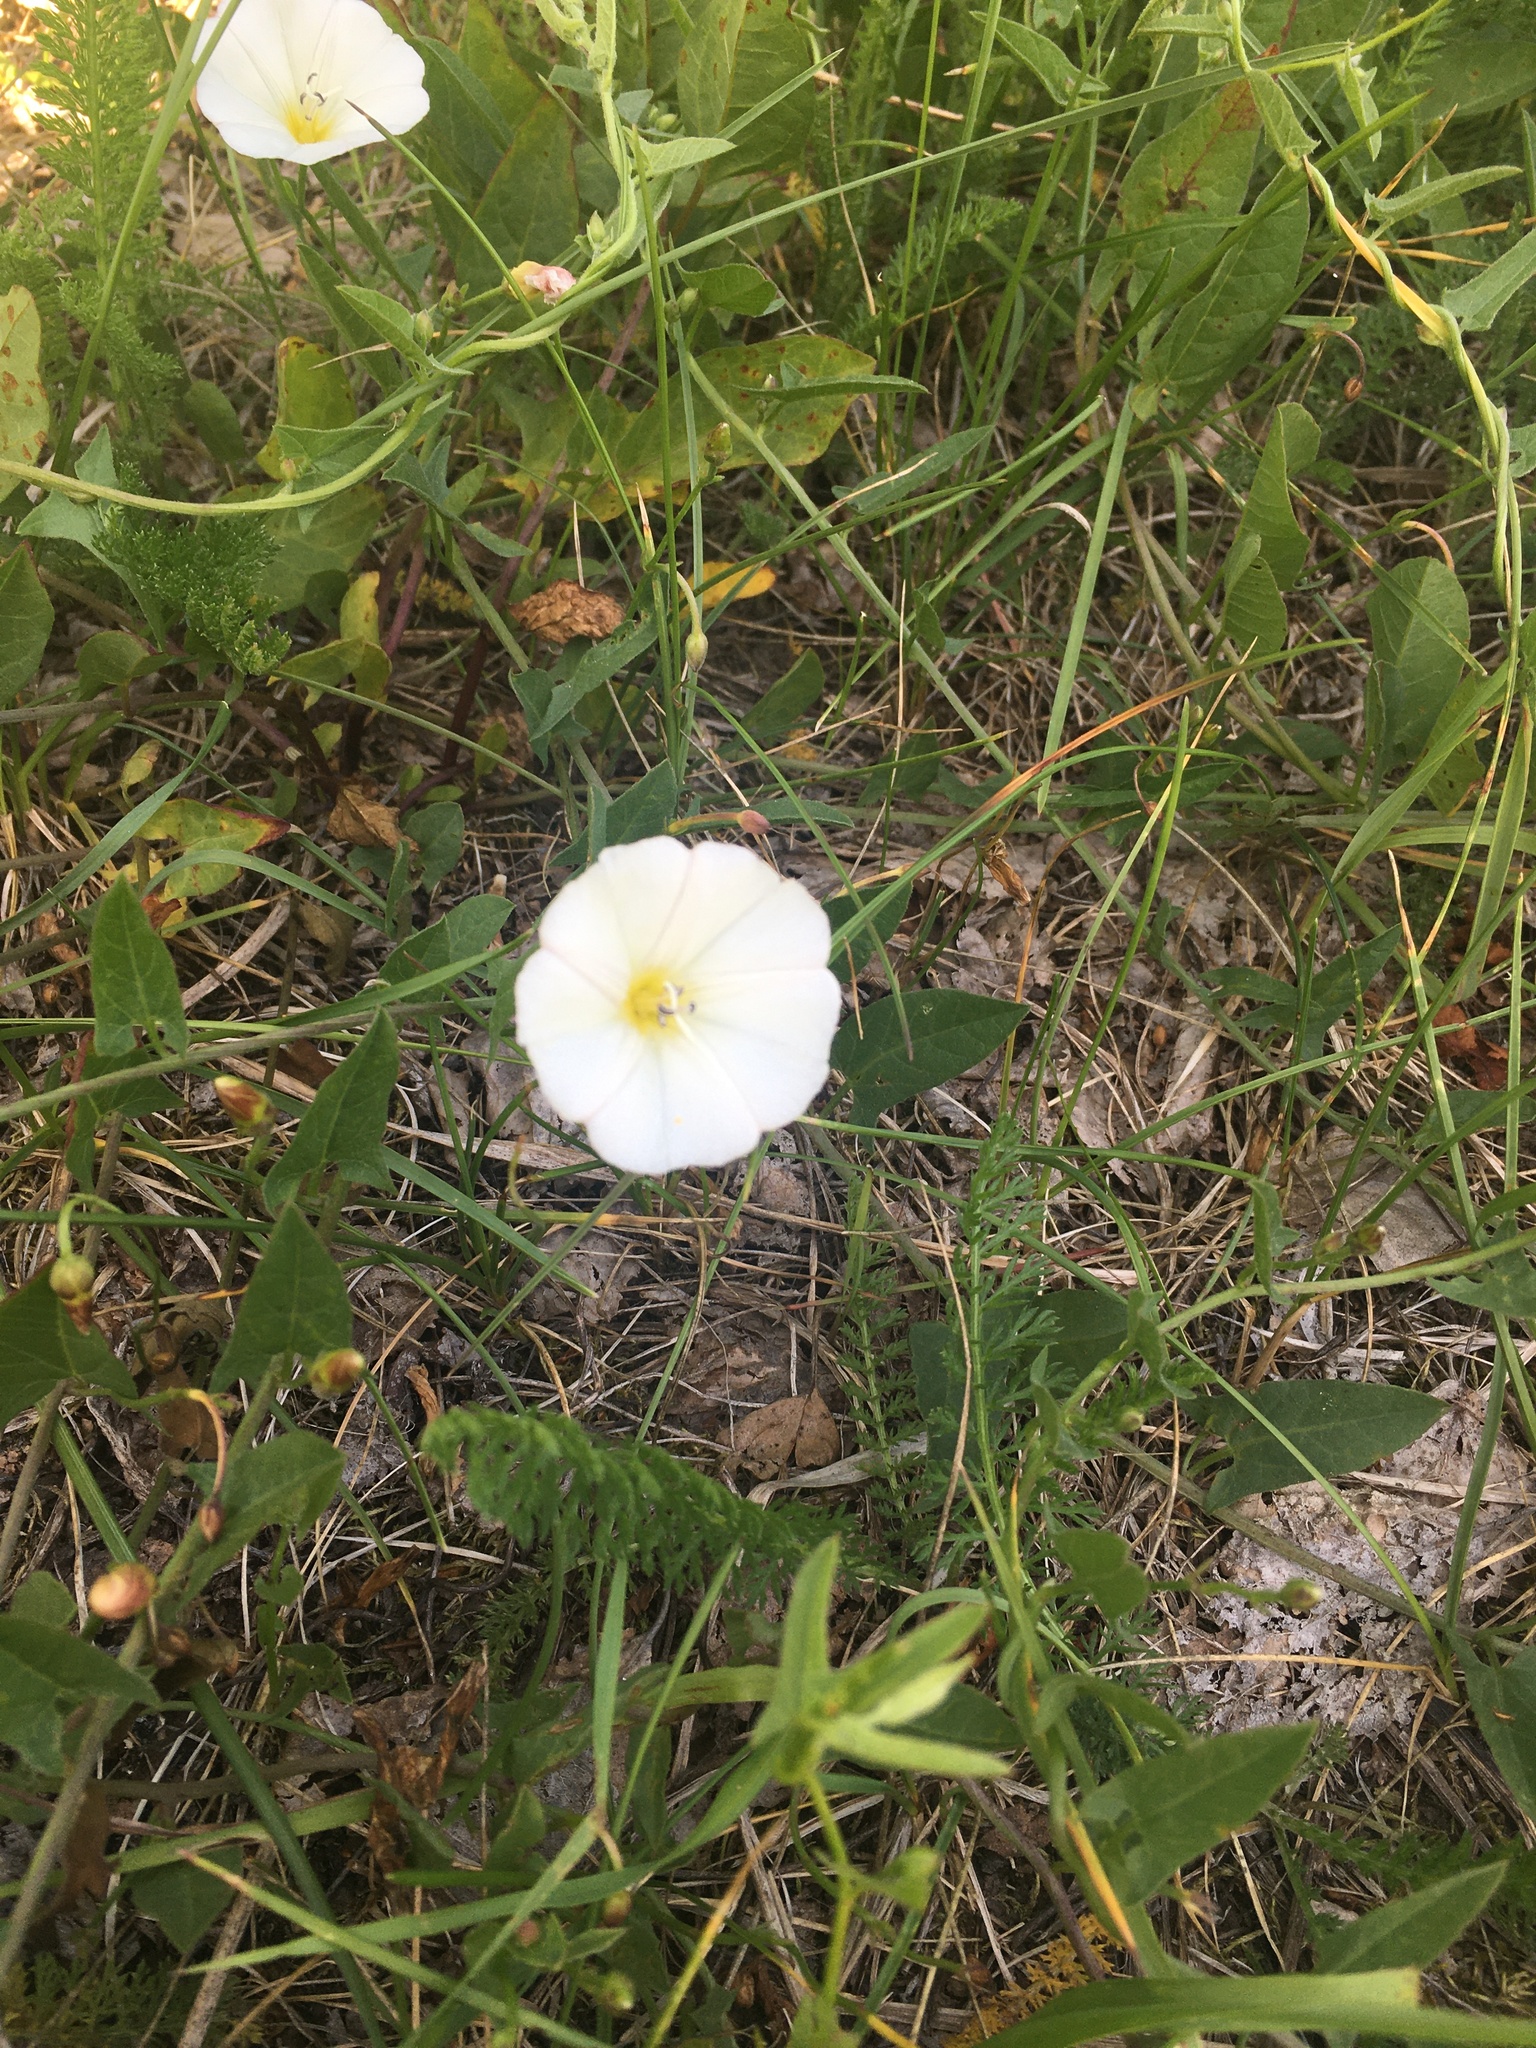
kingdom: Plantae
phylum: Tracheophyta
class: Magnoliopsida
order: Solanales
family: Convolvulaceae
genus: Convolvulus
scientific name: Convolvulus arvensis
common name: Field bindweed
